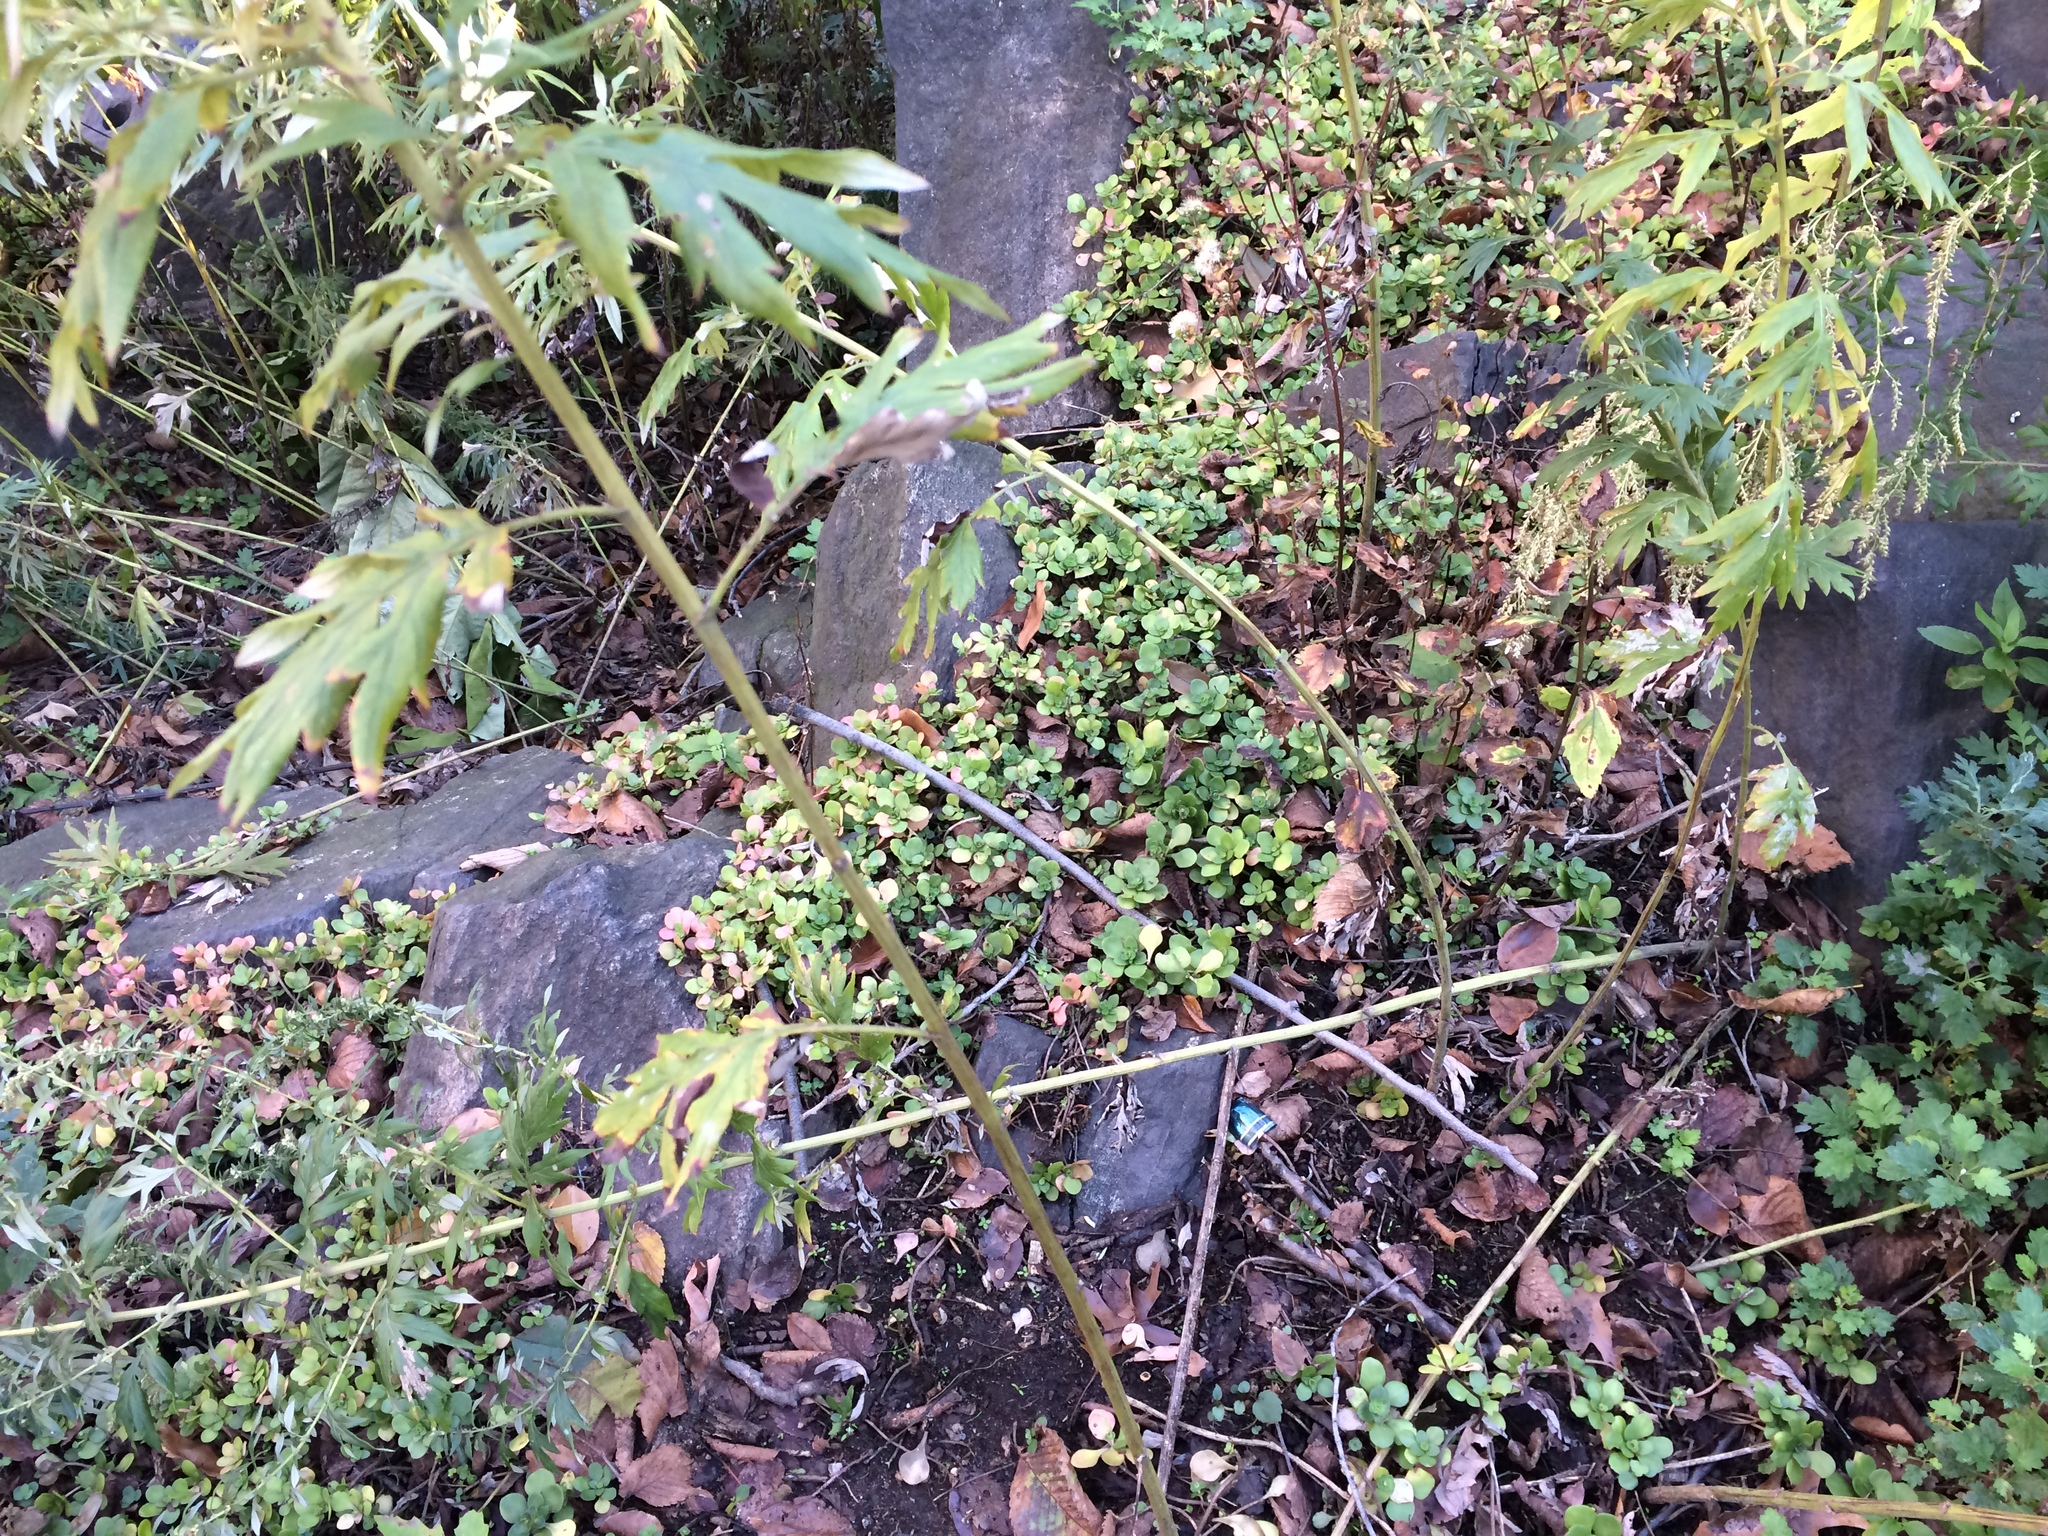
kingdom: Plantae
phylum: Tracheophyta
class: Magnoliopsida
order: Saxifragales
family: Crassulaceae
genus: Sedum
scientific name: Sedum ternatum
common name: Wild stonecrop
